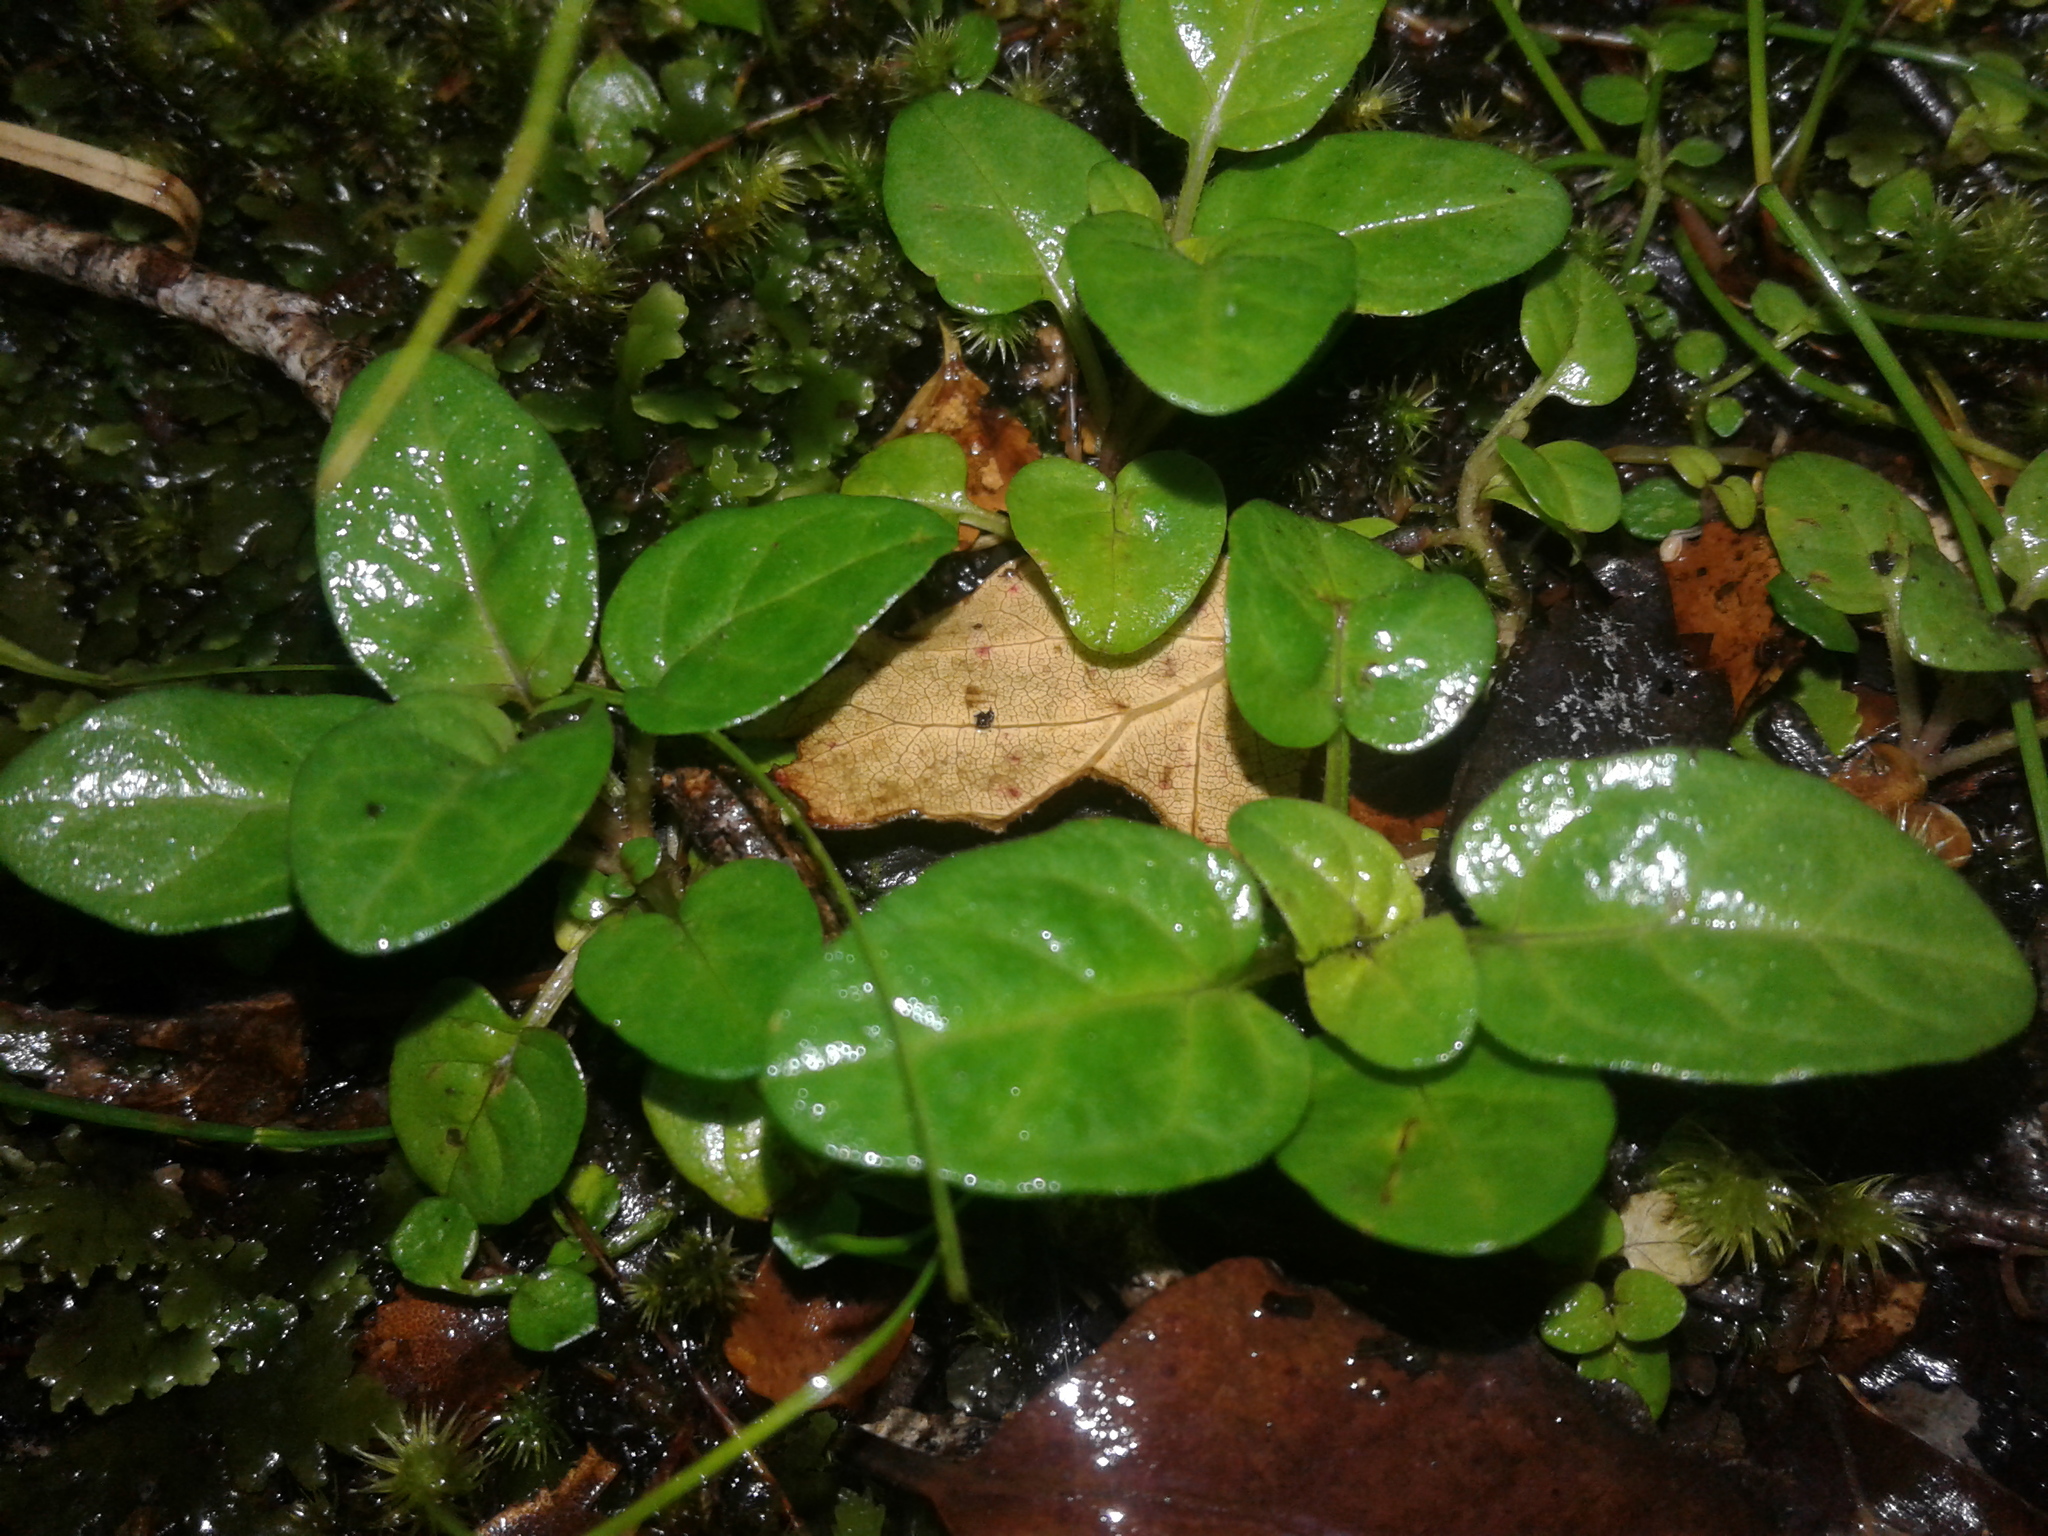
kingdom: Plantae
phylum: Tracheophyta
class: Magnoliopsida
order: Lamiales
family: Lamiaceae
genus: Prunella
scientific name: Prunella vulgaris
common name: Heal-all
